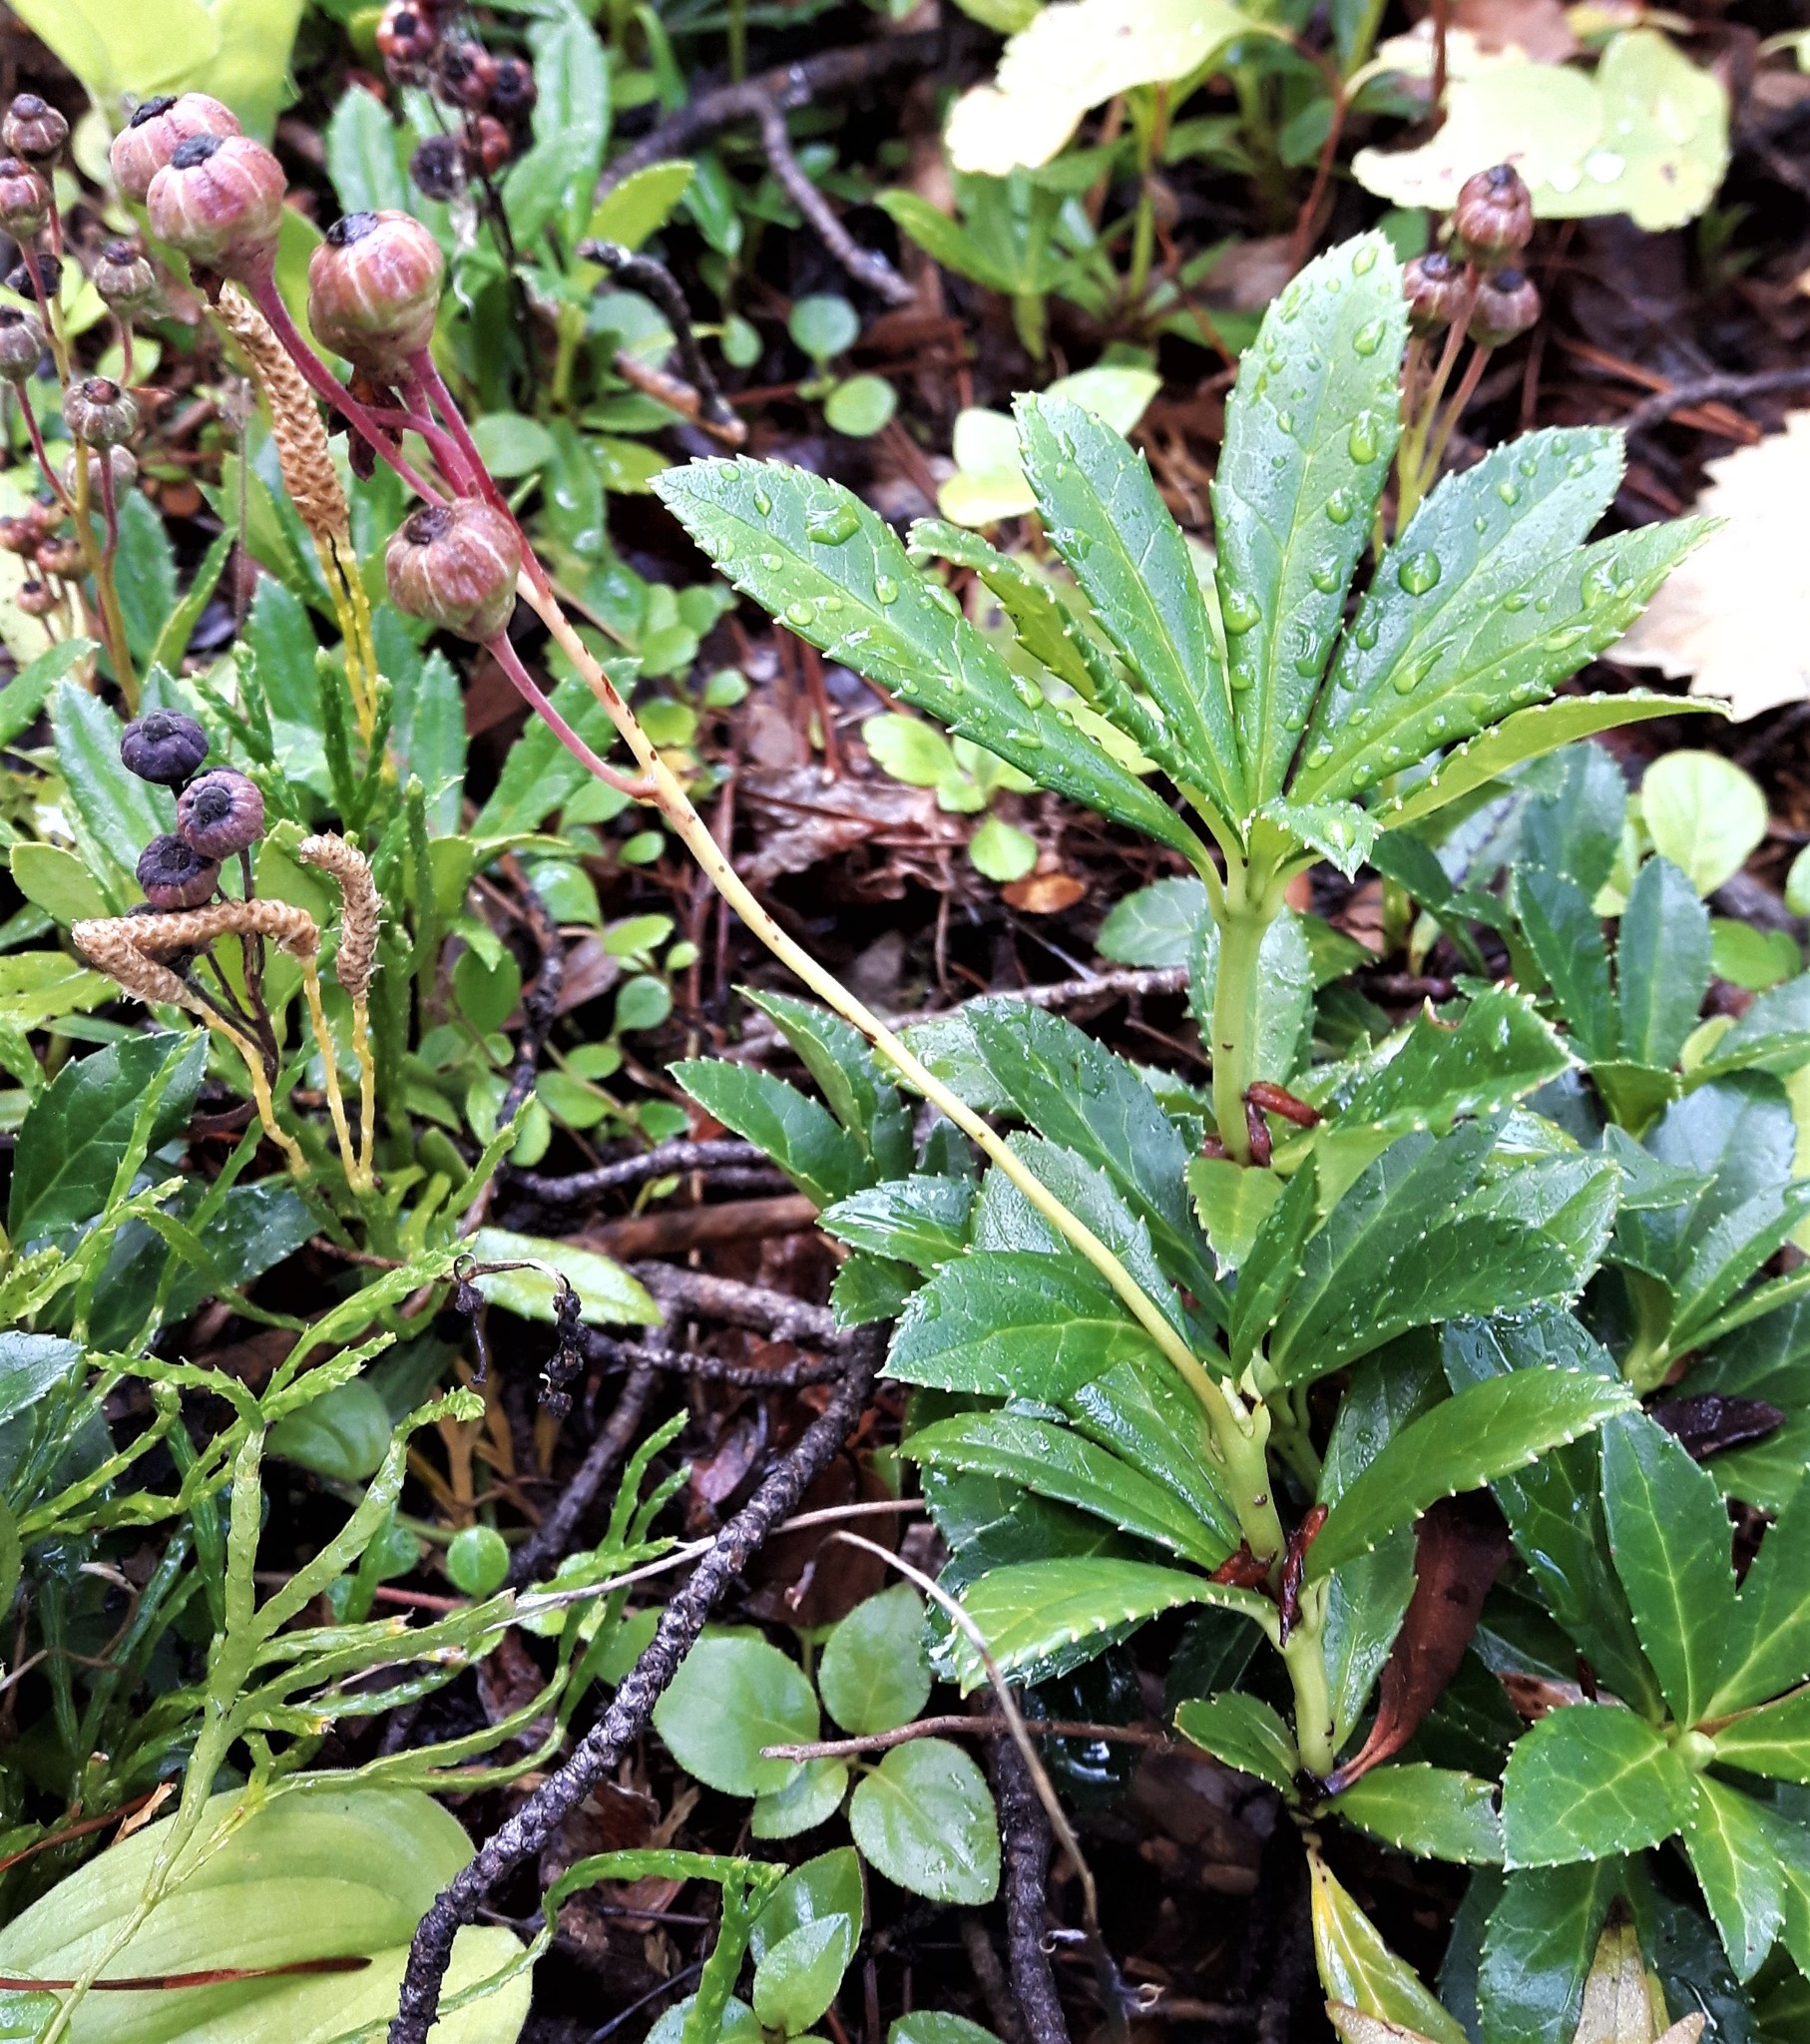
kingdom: Plantae
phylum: Tracheophyta
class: Magnoliopsida
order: Ericales
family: Ericaceae
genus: Chimaphila
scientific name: Chimaphila umbellata
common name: Pipsissewa
